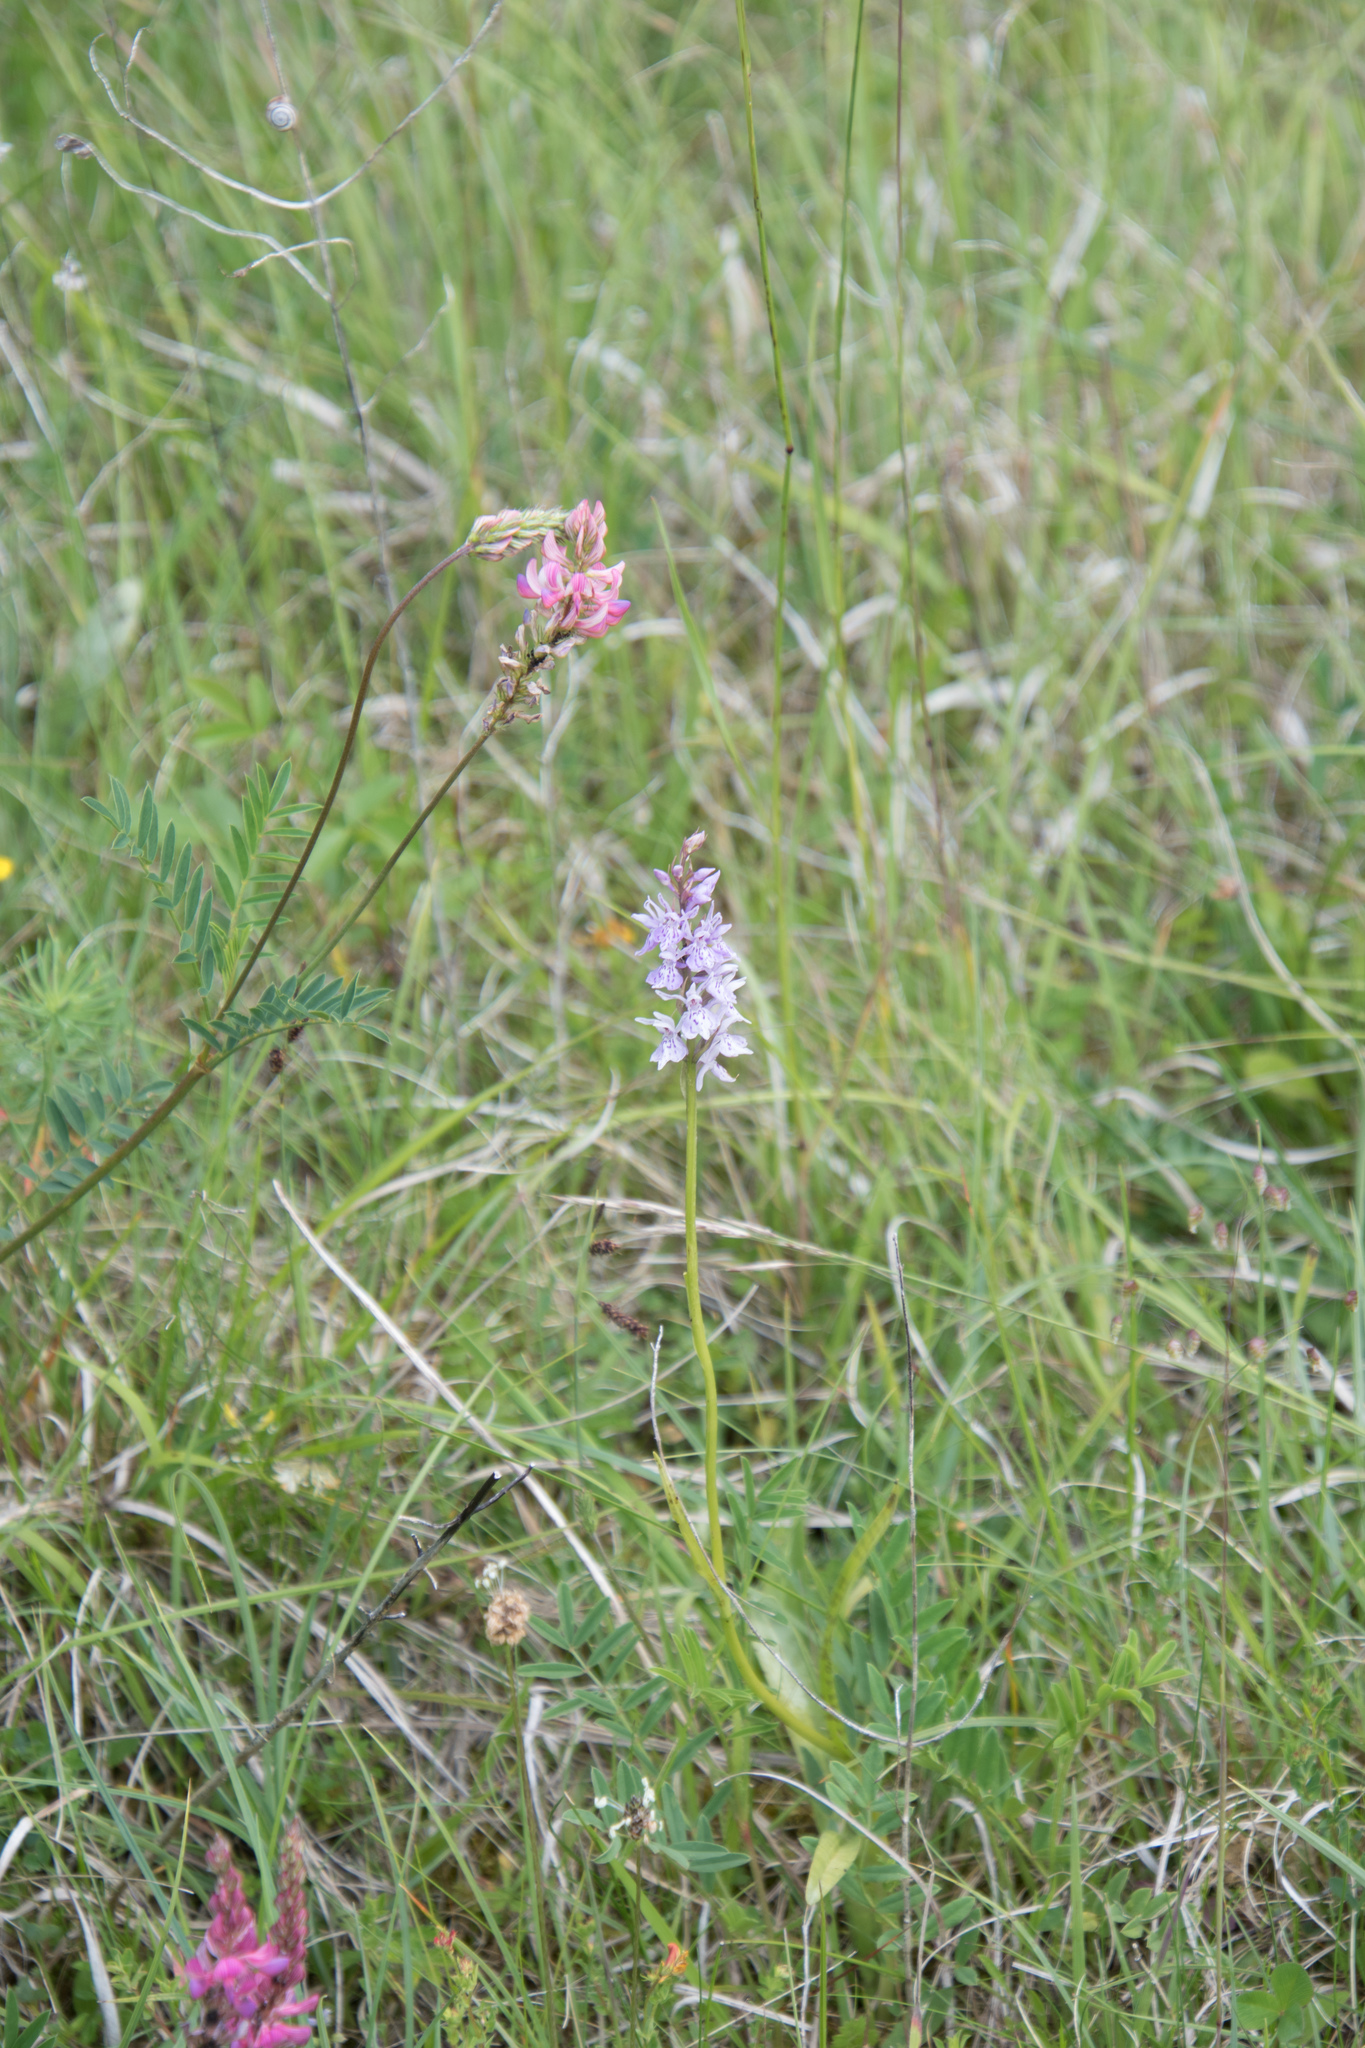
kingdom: Plantae
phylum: Tracheophyta
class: Liliopsida
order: Asparagales
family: Orchidaceae
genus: Dactylorhiza
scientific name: Dactylorhiza maculata
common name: Heath spotted-orchid
